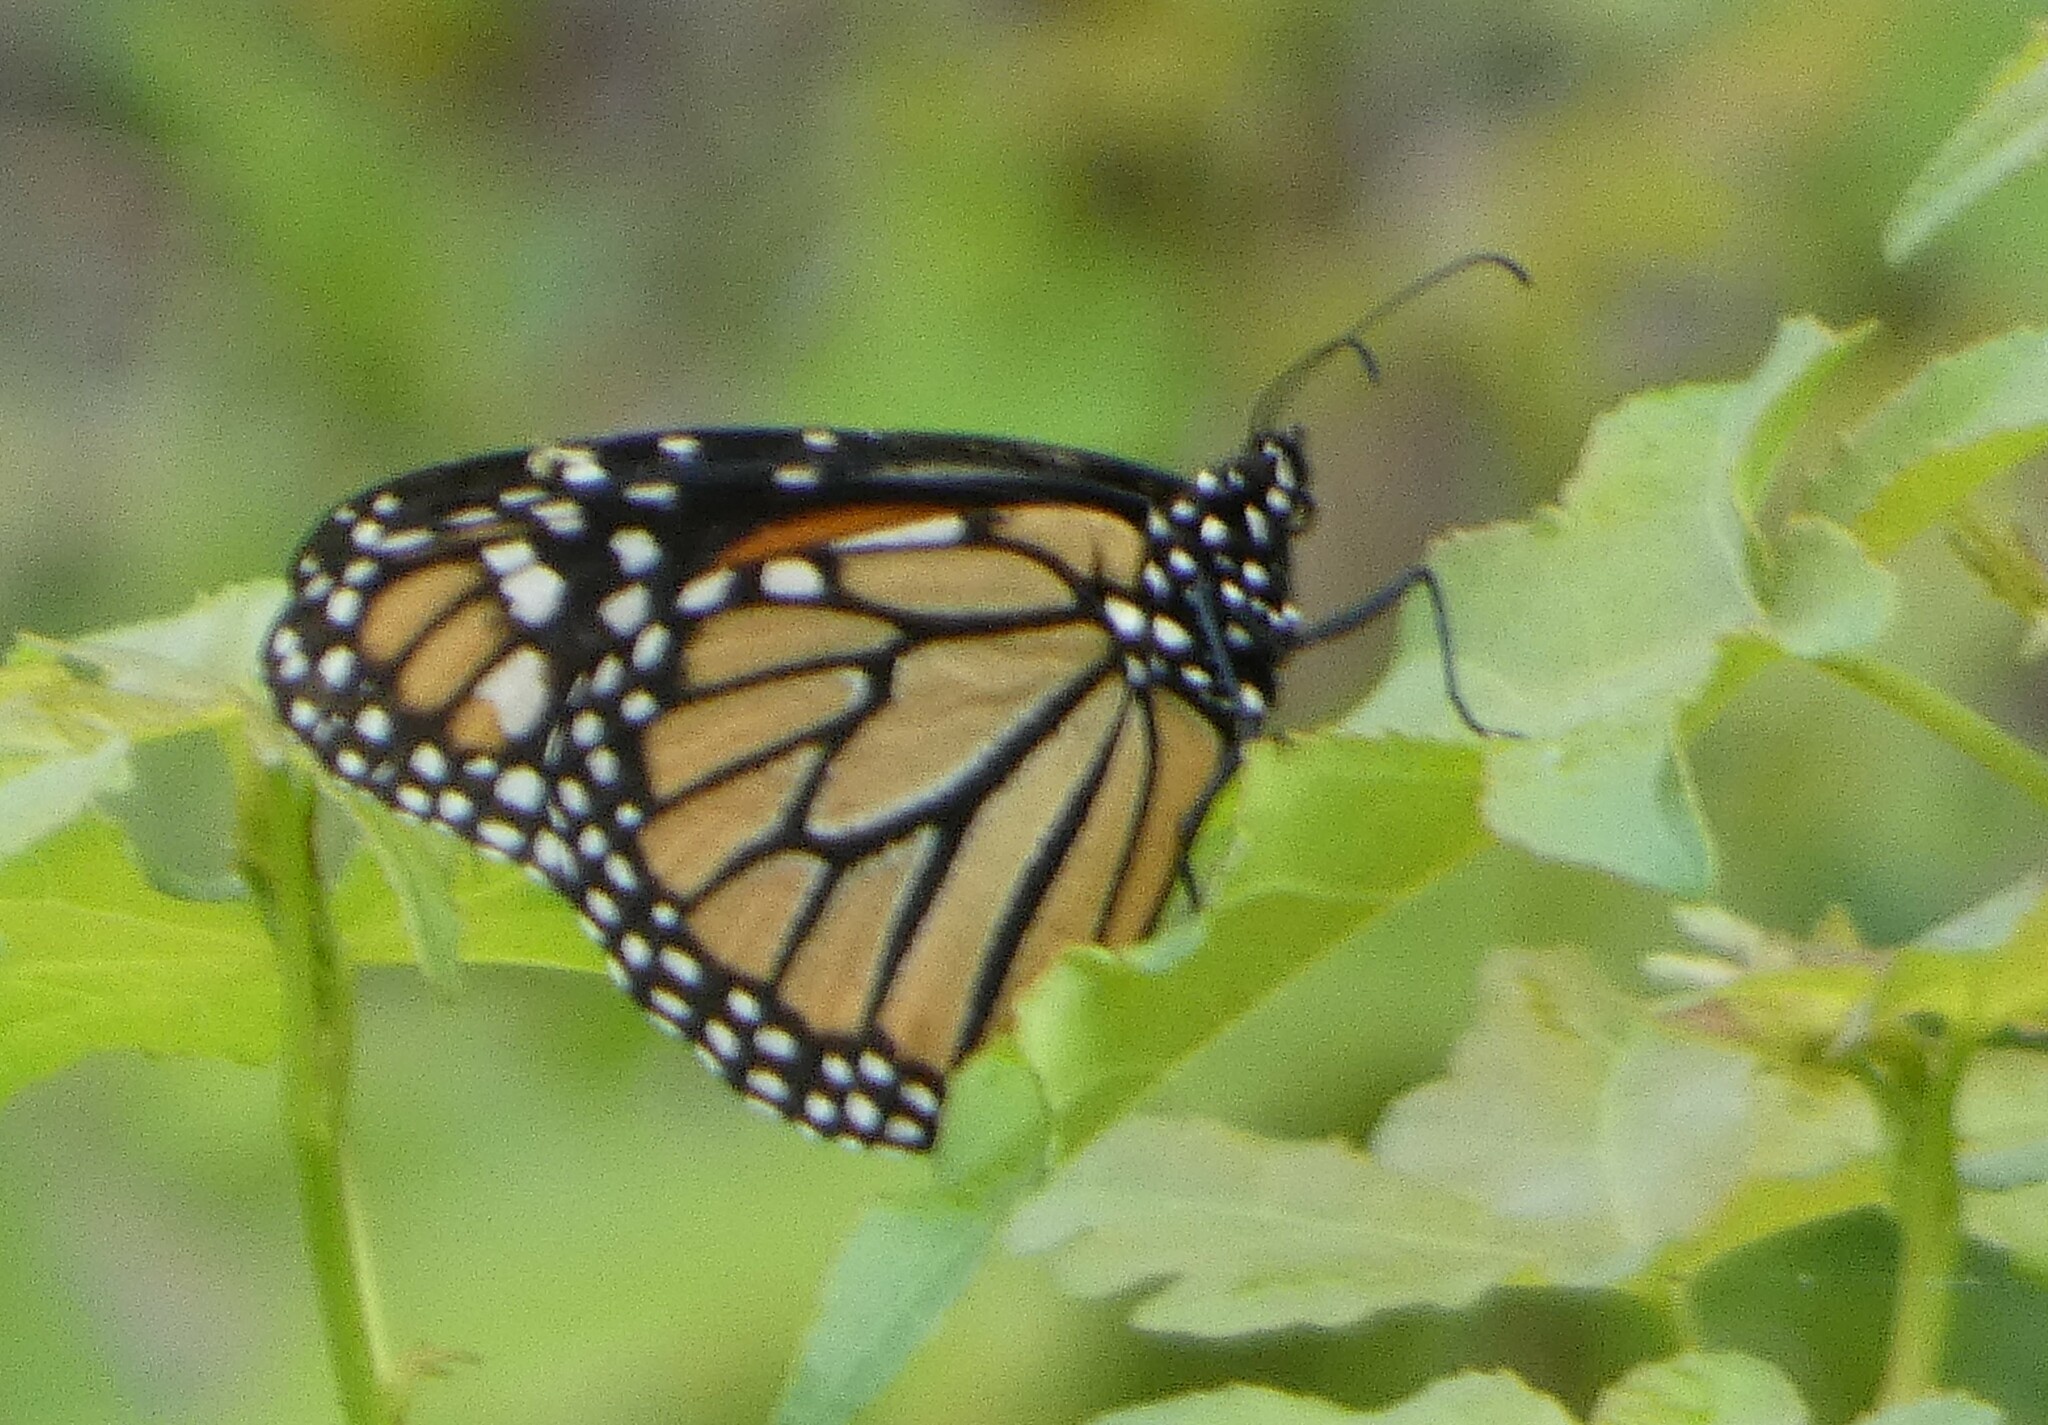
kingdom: Animalia
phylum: Arthropoda
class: Insecta
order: Lepidoptera
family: Nymphalidae
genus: Danaus
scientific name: Danaus plexippus
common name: Monarch
